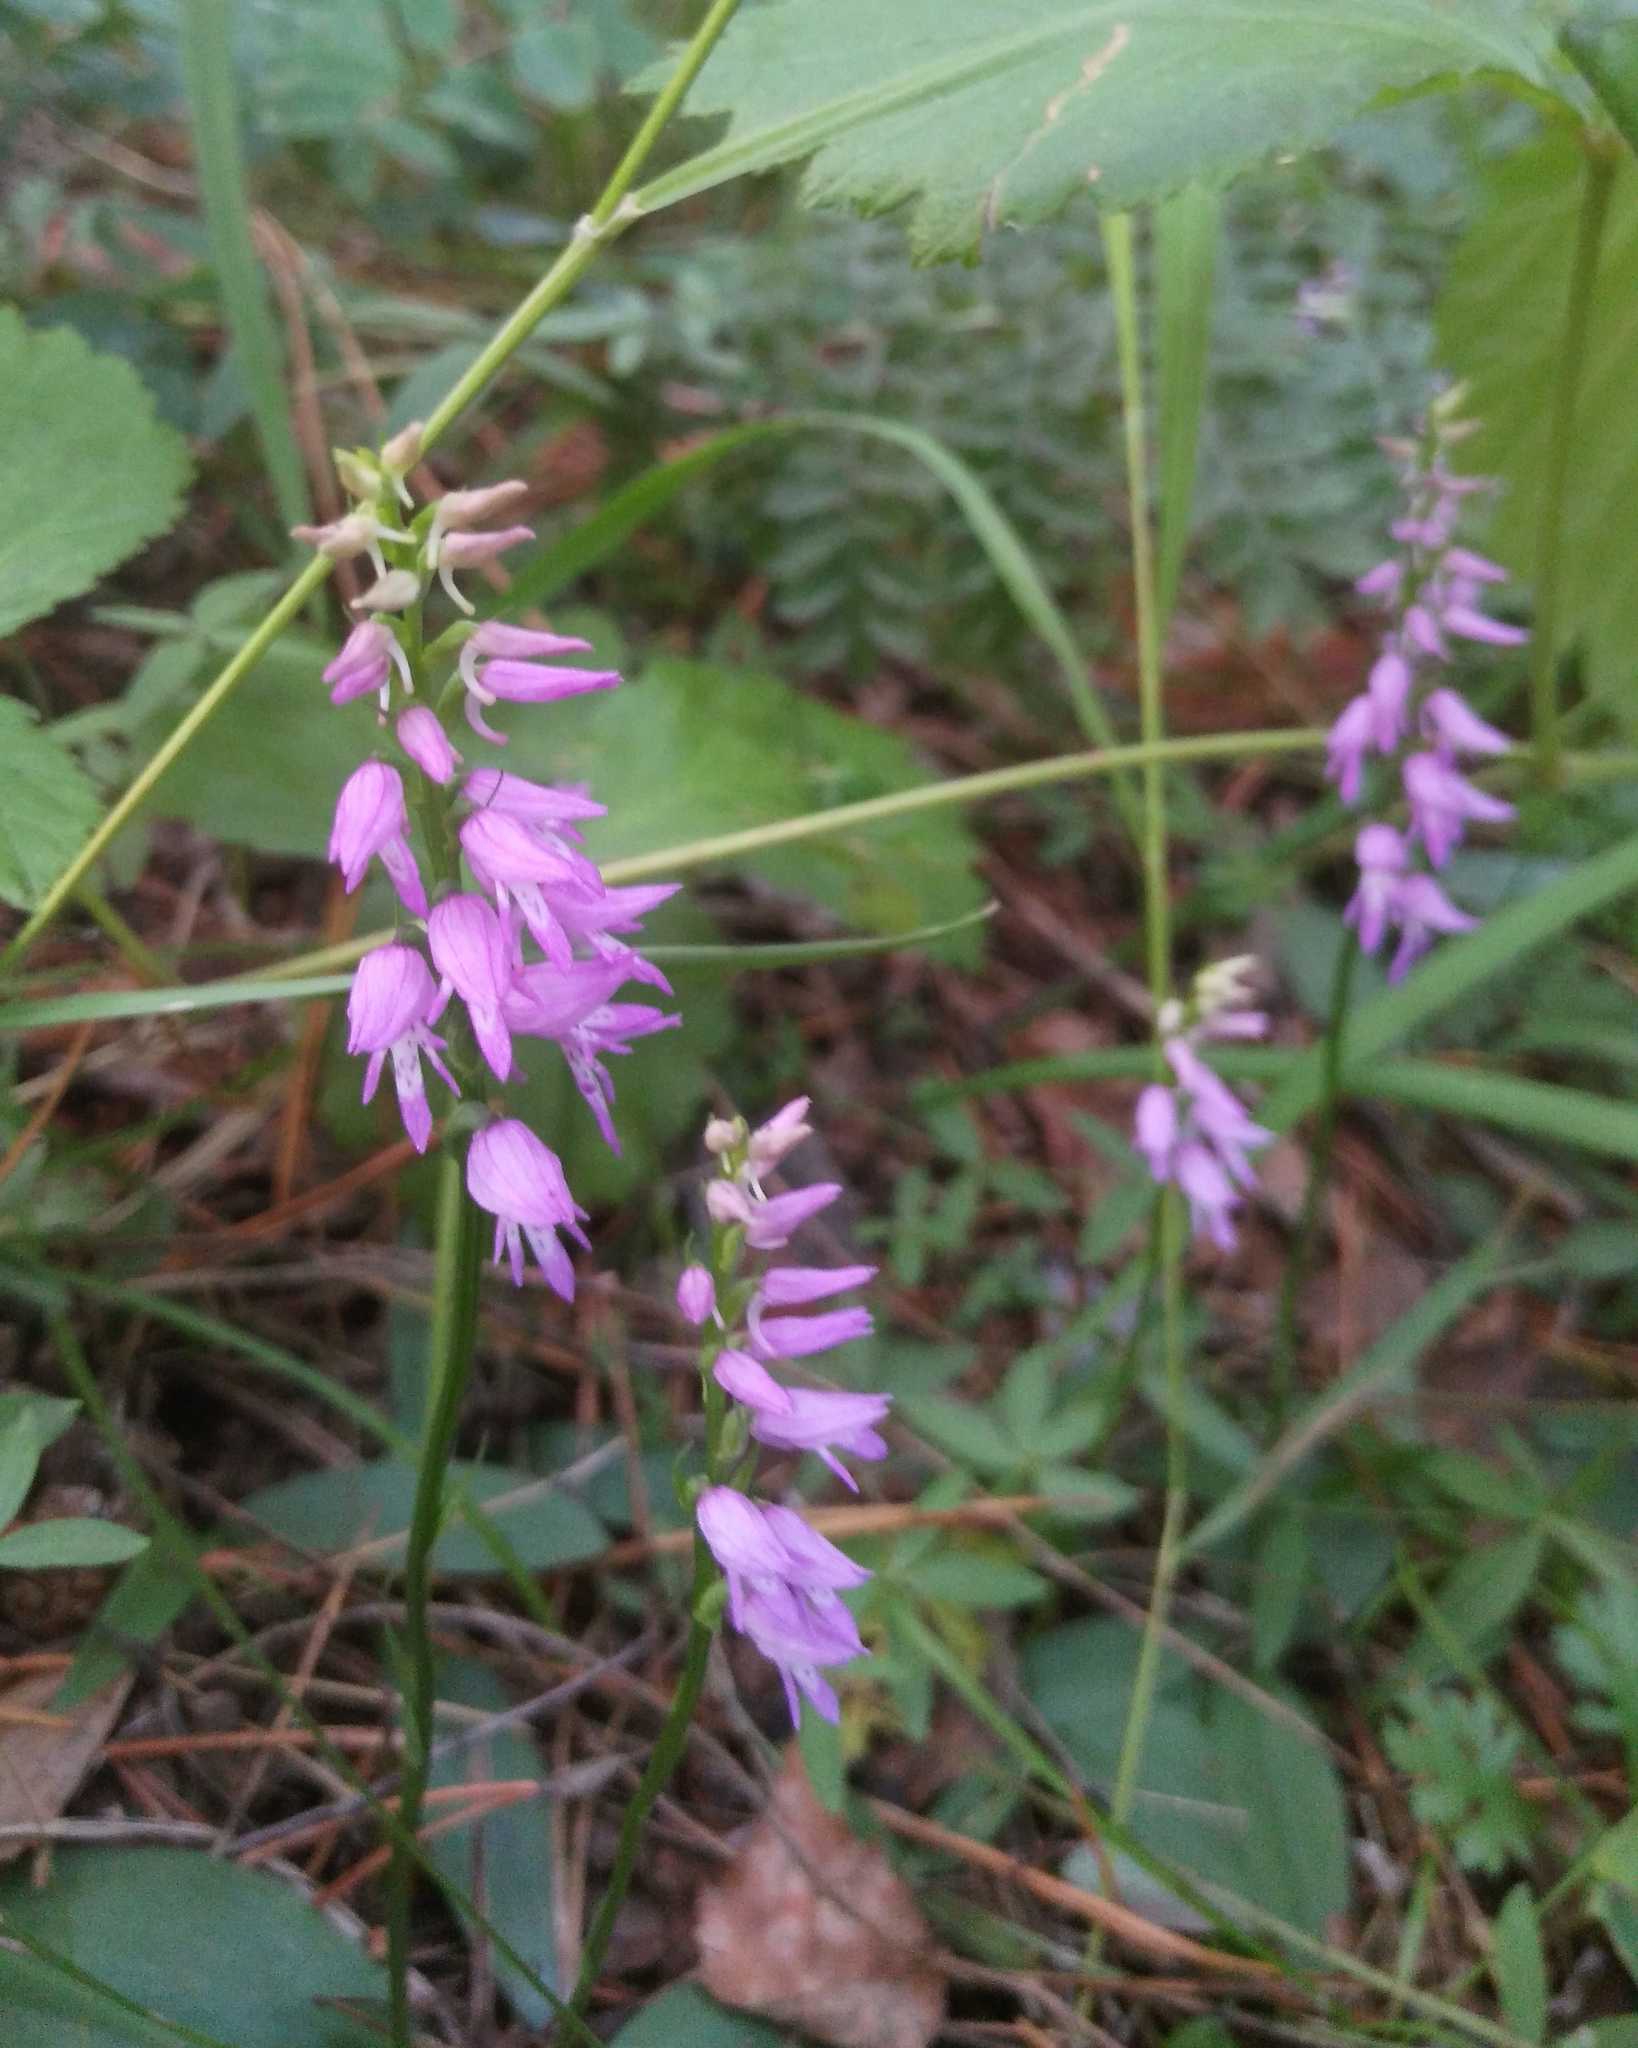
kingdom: Plantae
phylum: Tracheophyta
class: Liliopsida
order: Asparagales
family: Orchidaceae
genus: Hemipilia
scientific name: Hemipilia cucullata
